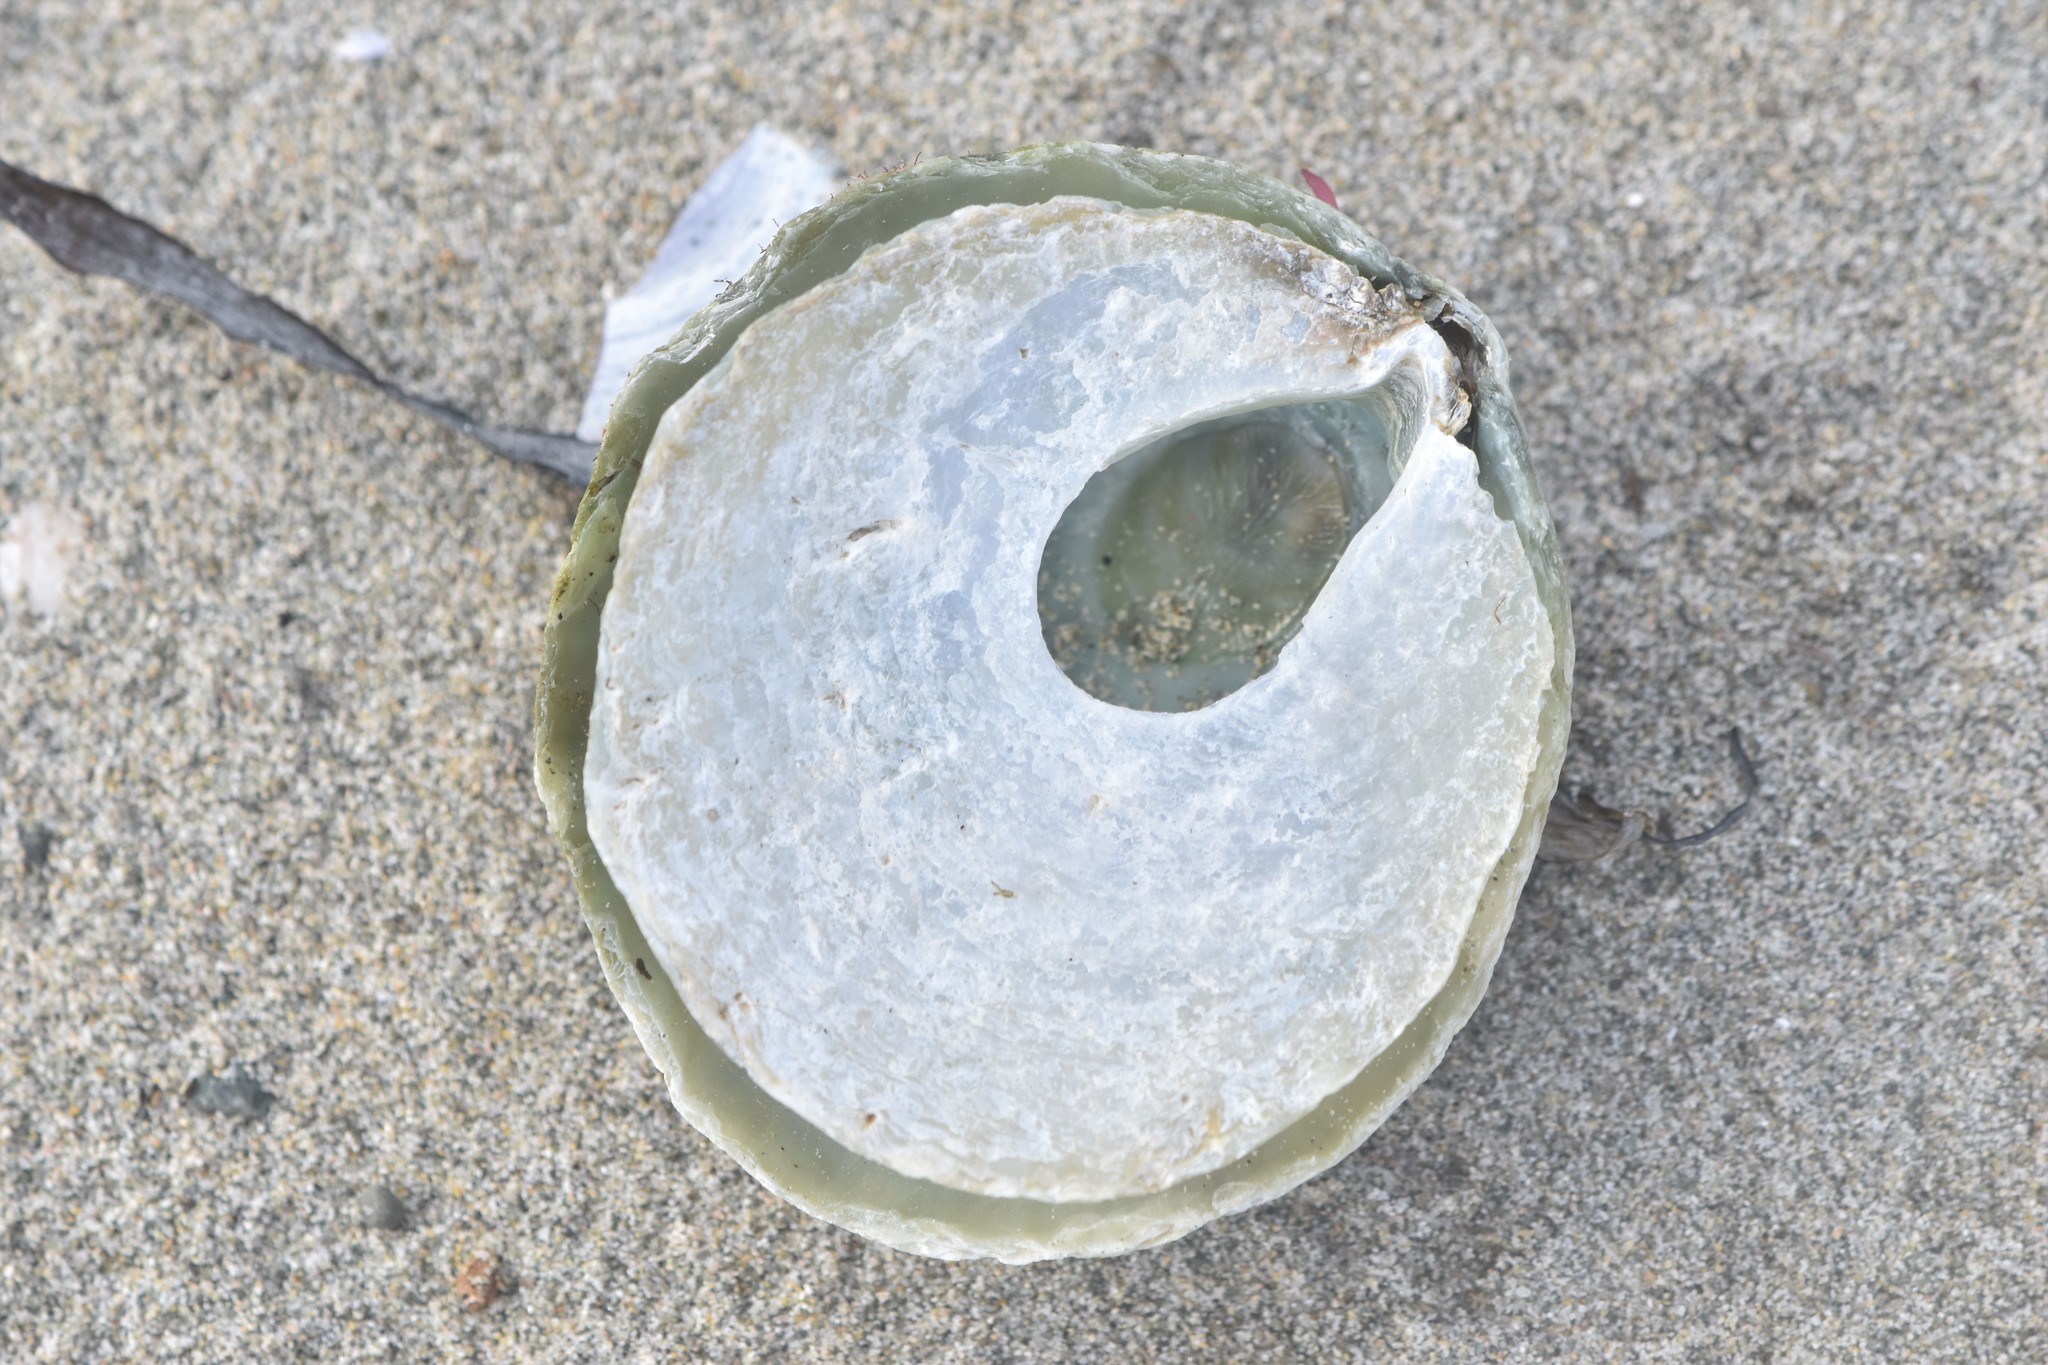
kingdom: Animalia
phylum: Mollusca
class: Bivalvia
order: Pectinida
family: Anomiidae
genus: Pododesmus
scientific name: Pododesmus macrochisma
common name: Alaska jingle
